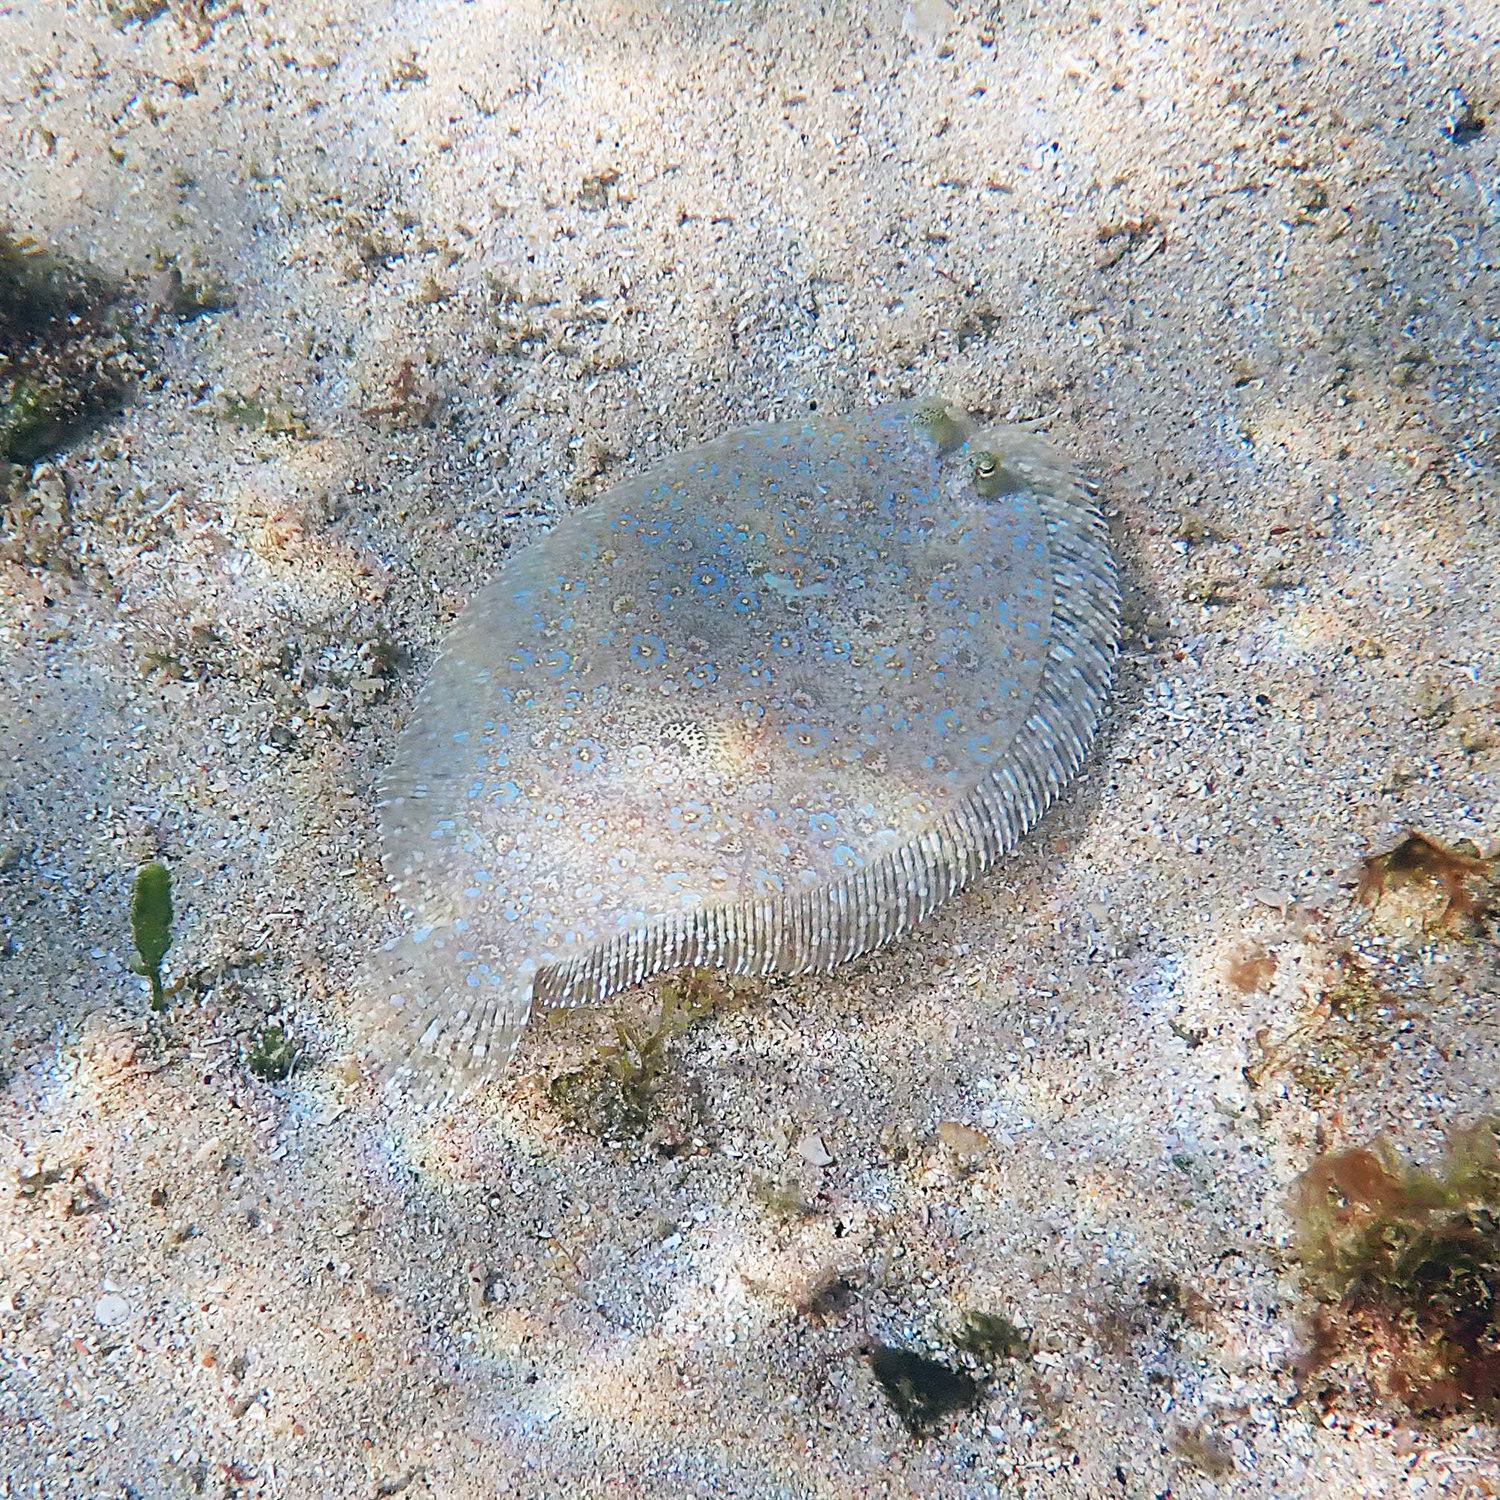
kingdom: Animalia
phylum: Chordata
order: Pleuronectiformes
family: Bothidae
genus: Bothus
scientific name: Bothus pantherinus
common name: Leopard flounder
